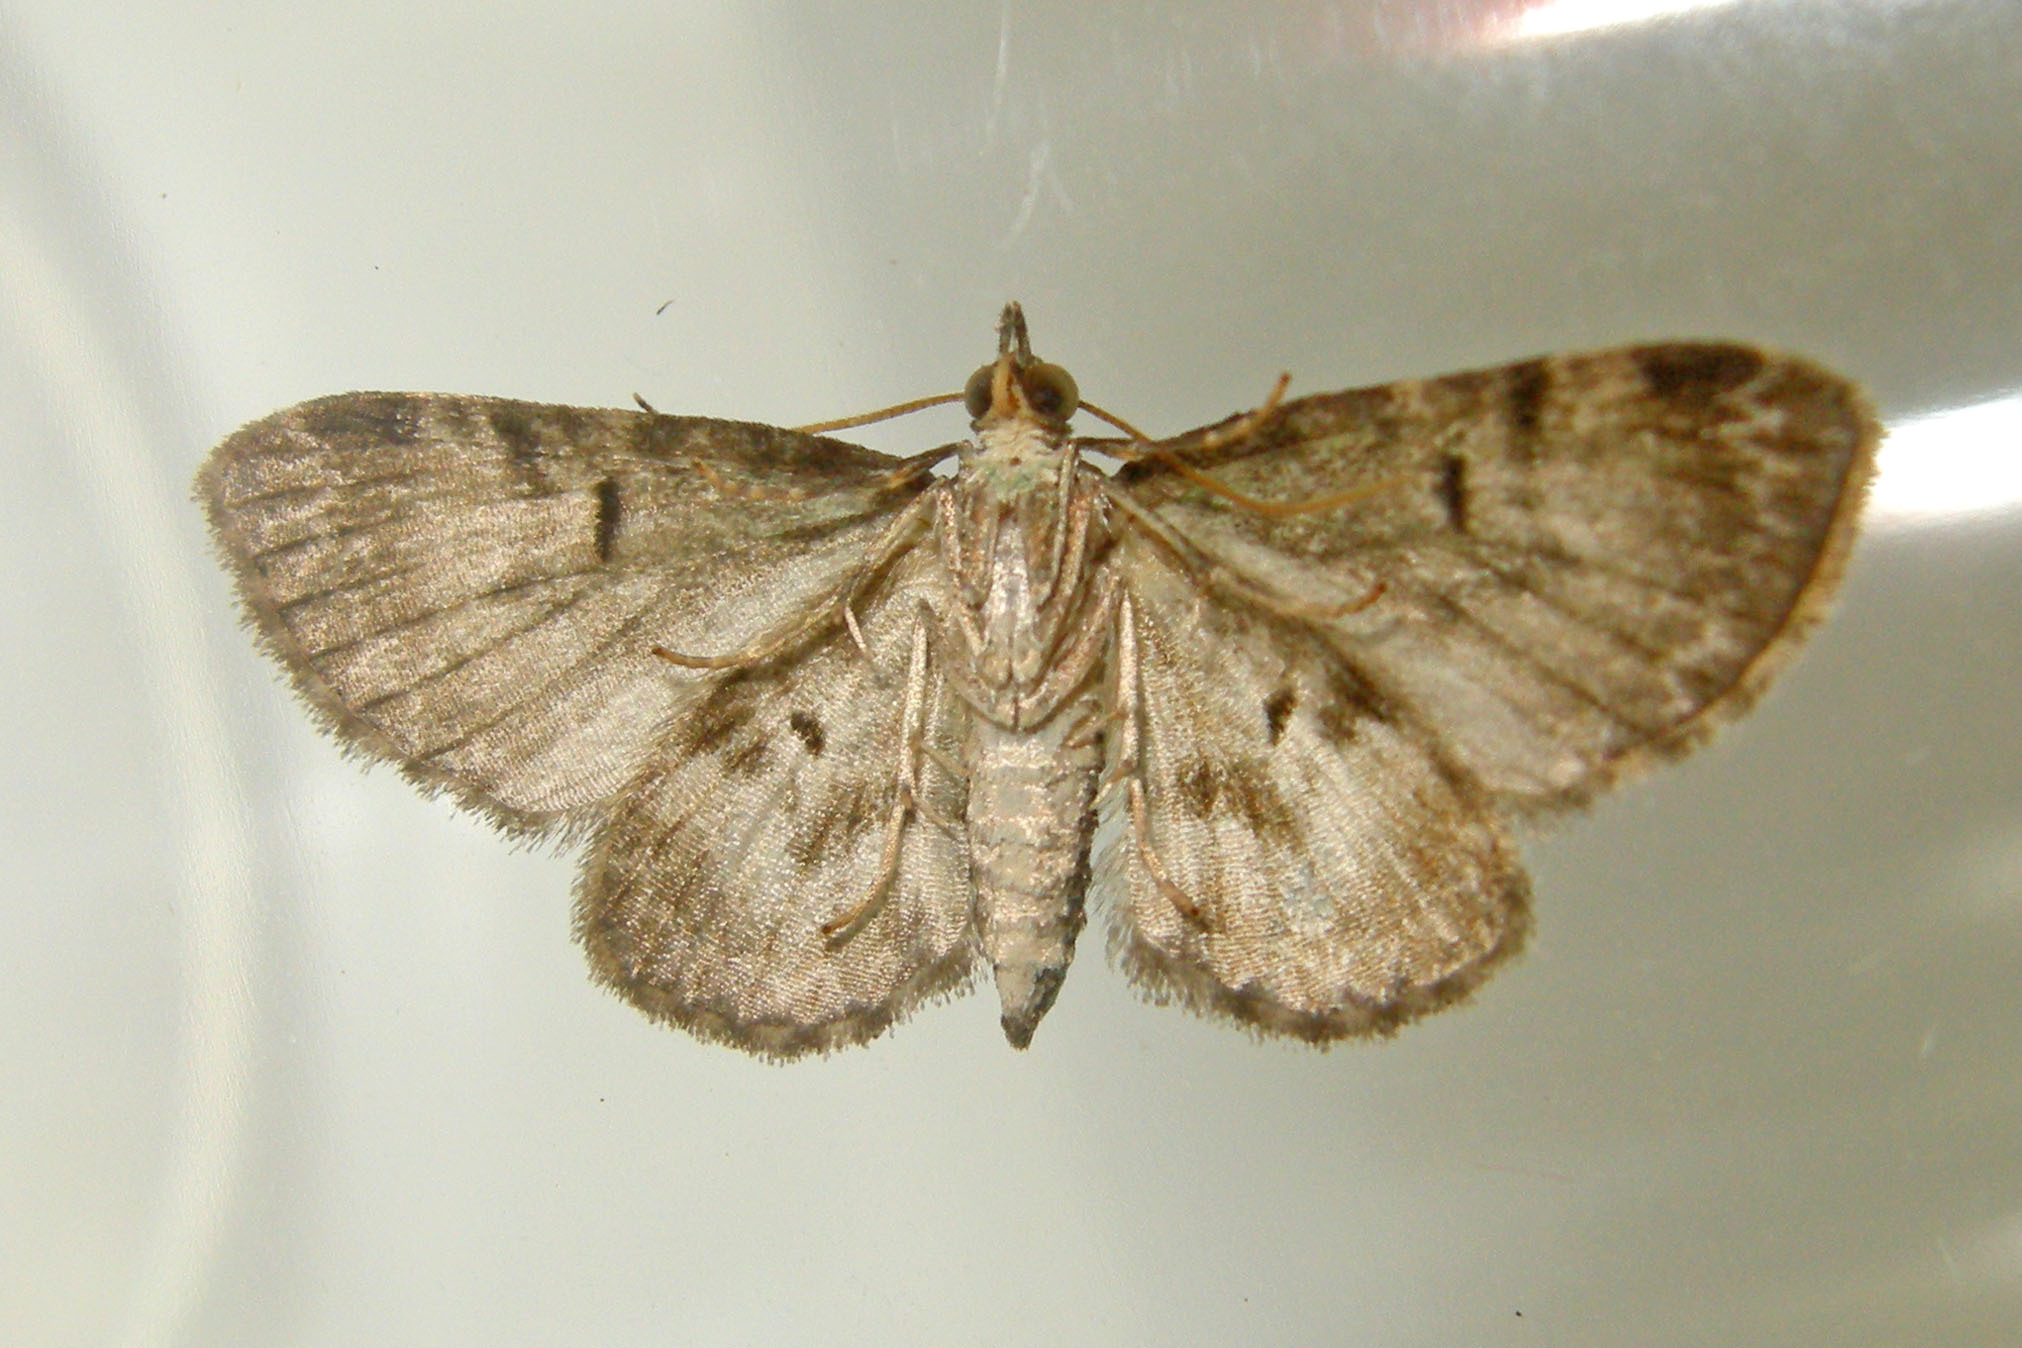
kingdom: Animalia
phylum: Arthropoda
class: Insecta
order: Lepidoptera
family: Geometridae
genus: Pasiphila
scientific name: Pasiphila rectangulata
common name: Green pug
